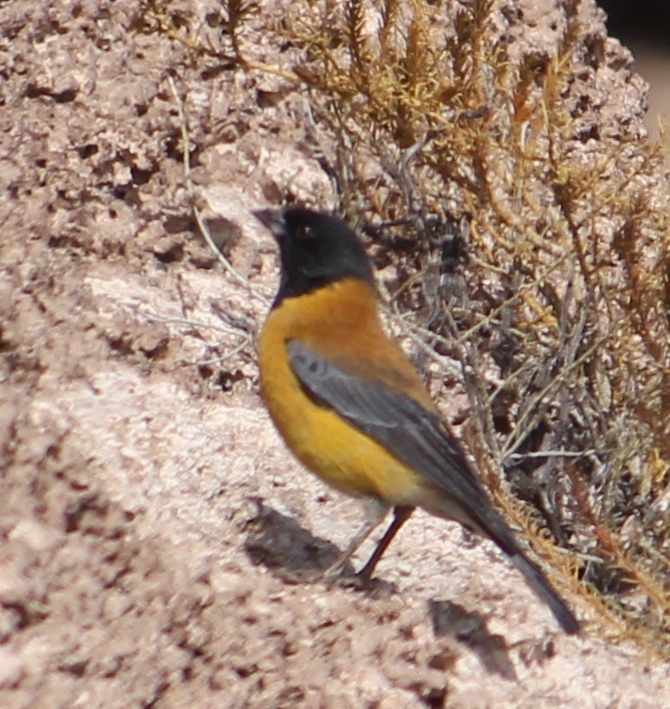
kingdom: Animalia
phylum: Chordata
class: Aves
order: Passeriformes
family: Thraupidae
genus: Phrygilus
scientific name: Phrygilus atriceps
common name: Black-hooded sierra finch
